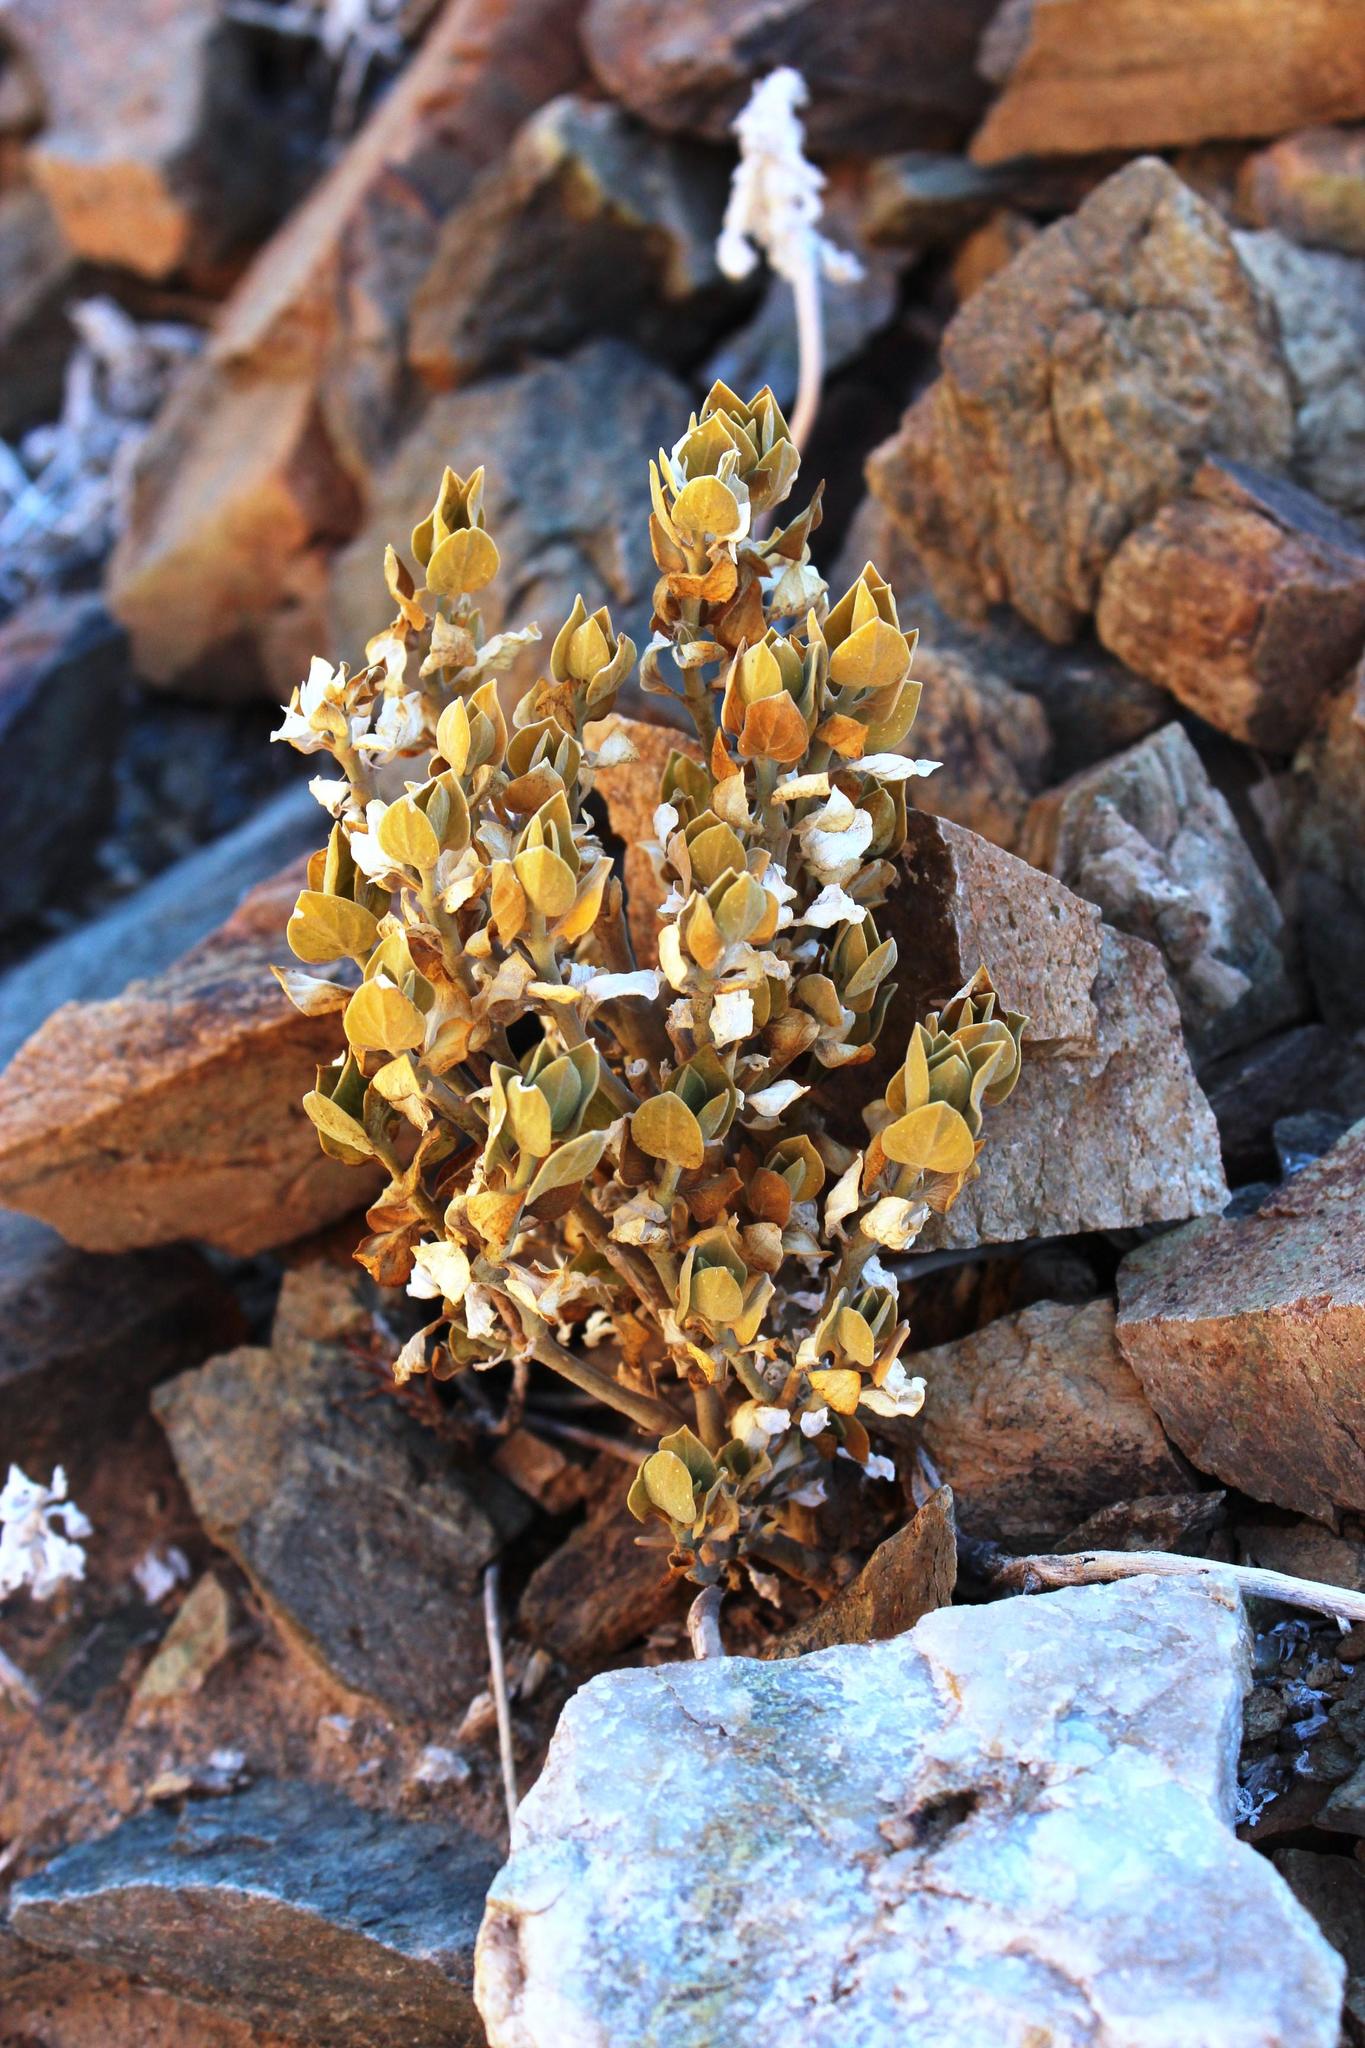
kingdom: Plantae
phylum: Tracheophyta
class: Magnoliopsida
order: Lamiales
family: Acanthaceae
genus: Pogonospermum
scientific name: Pogonospermum
